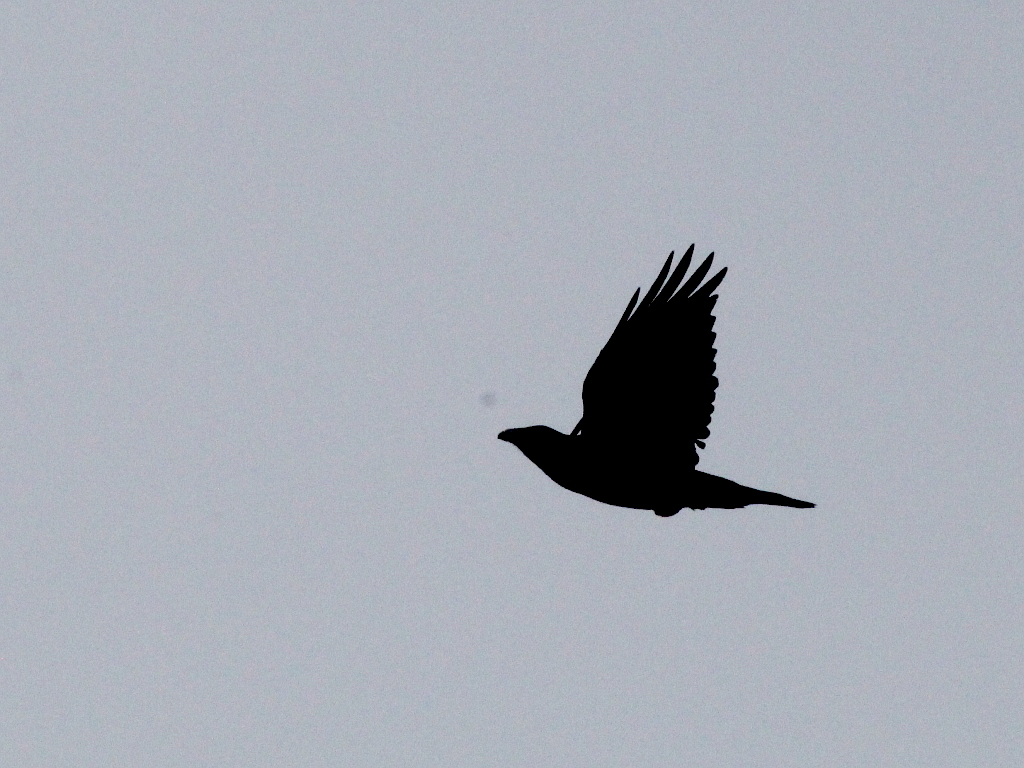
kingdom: Animalia
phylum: Chordata
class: Aves
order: Passeriformes
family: Corvidae
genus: Corvus
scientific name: Corvus corax
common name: Common raven
